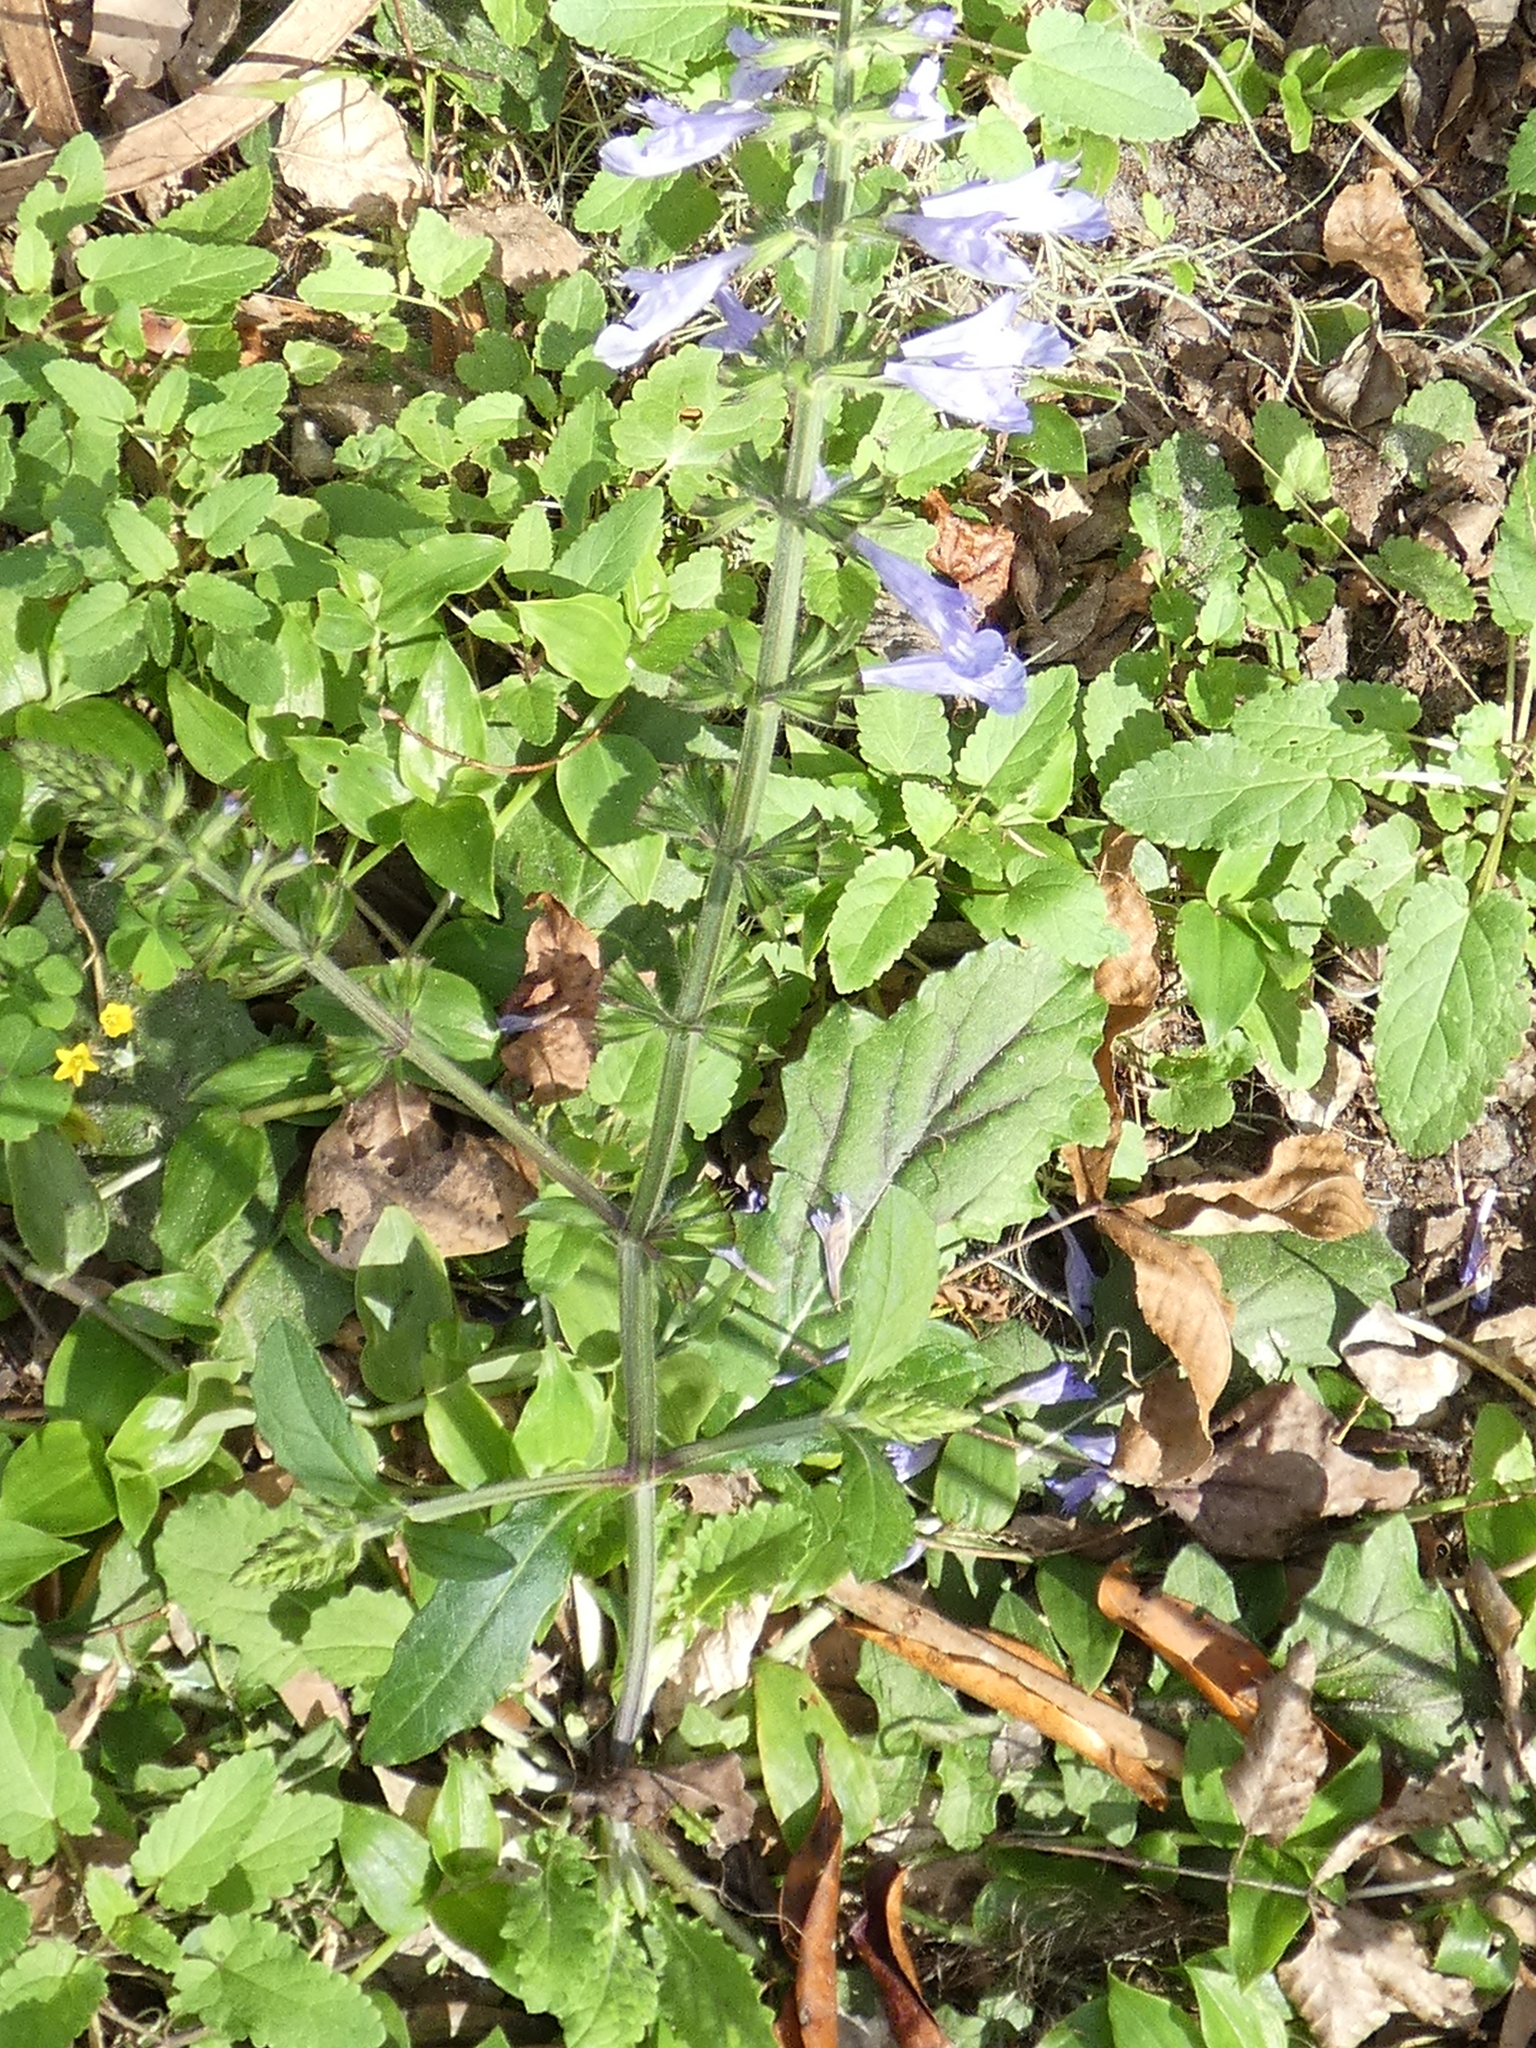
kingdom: Plantae
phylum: Tracheophyta
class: Magnoliopsida
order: Lamiales
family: Lamiaceae
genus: Salvia
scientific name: Salvia lyrata
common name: Cancerweed
